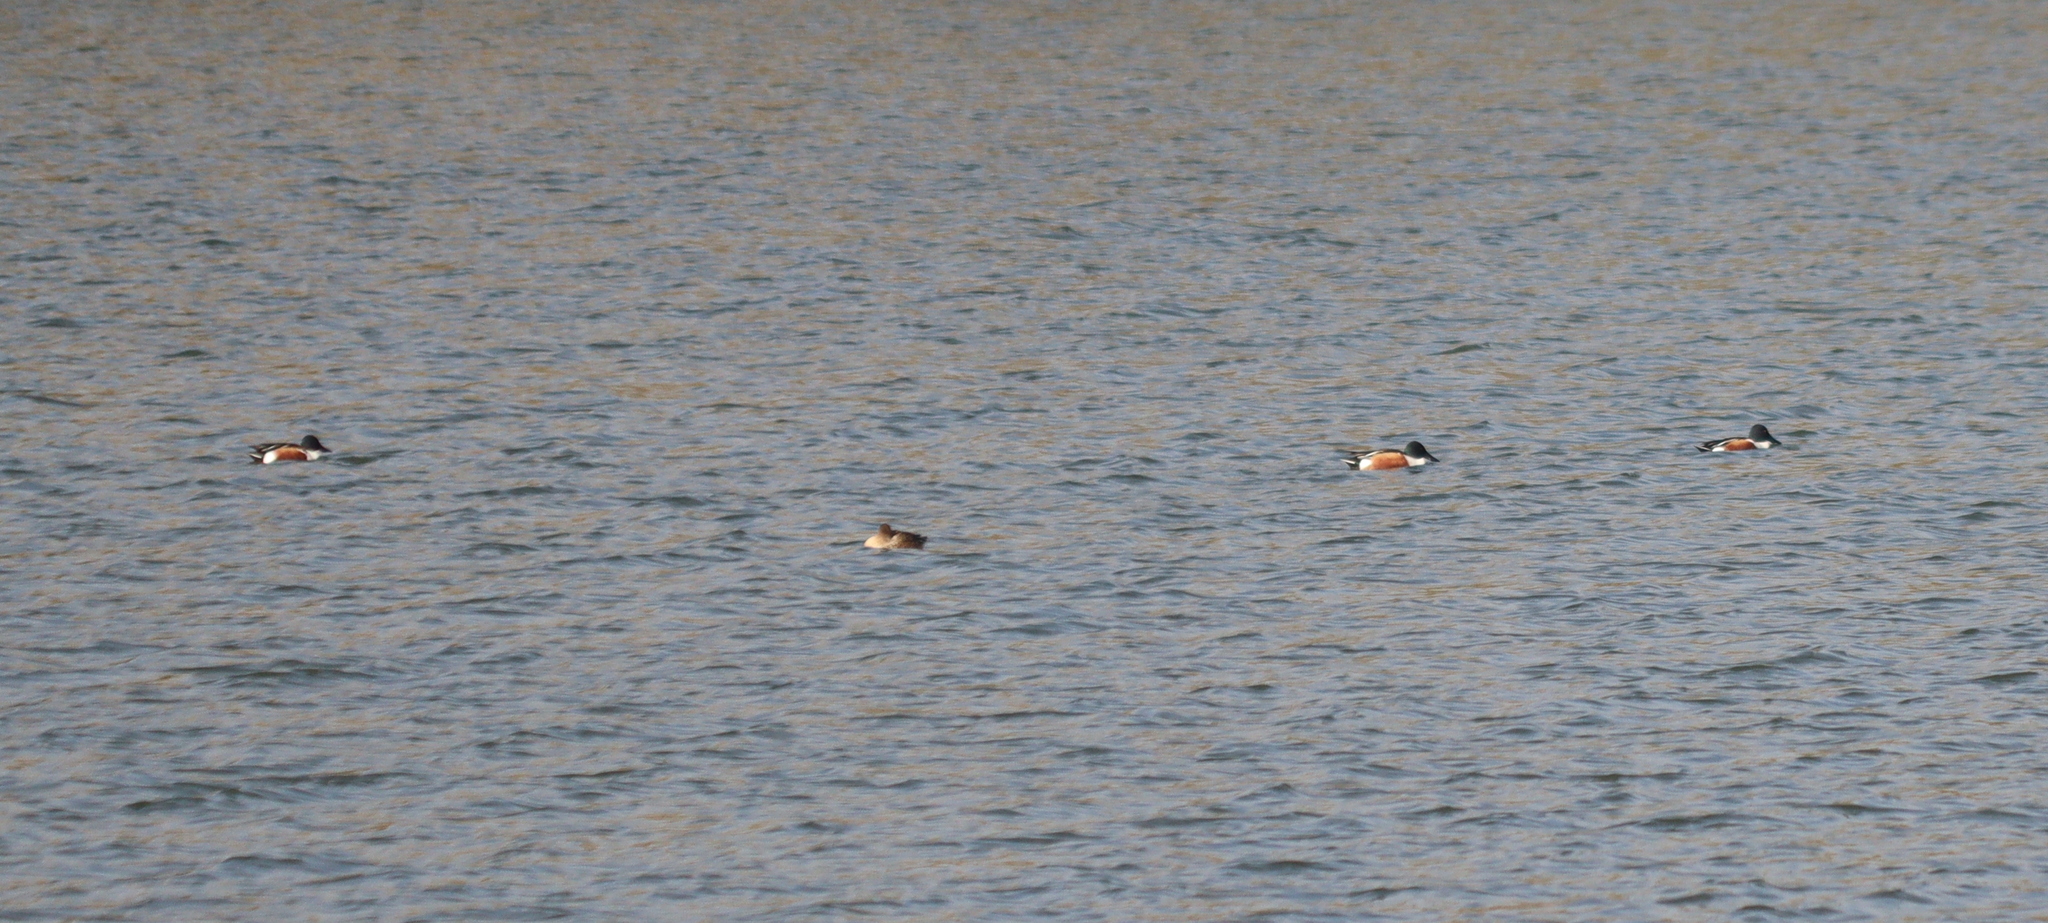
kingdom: Animalia
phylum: Chordata
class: Aves
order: Anseriformes
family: Anatidae
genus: Spatula
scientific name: Spatula clypeata
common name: Northern shoveler
